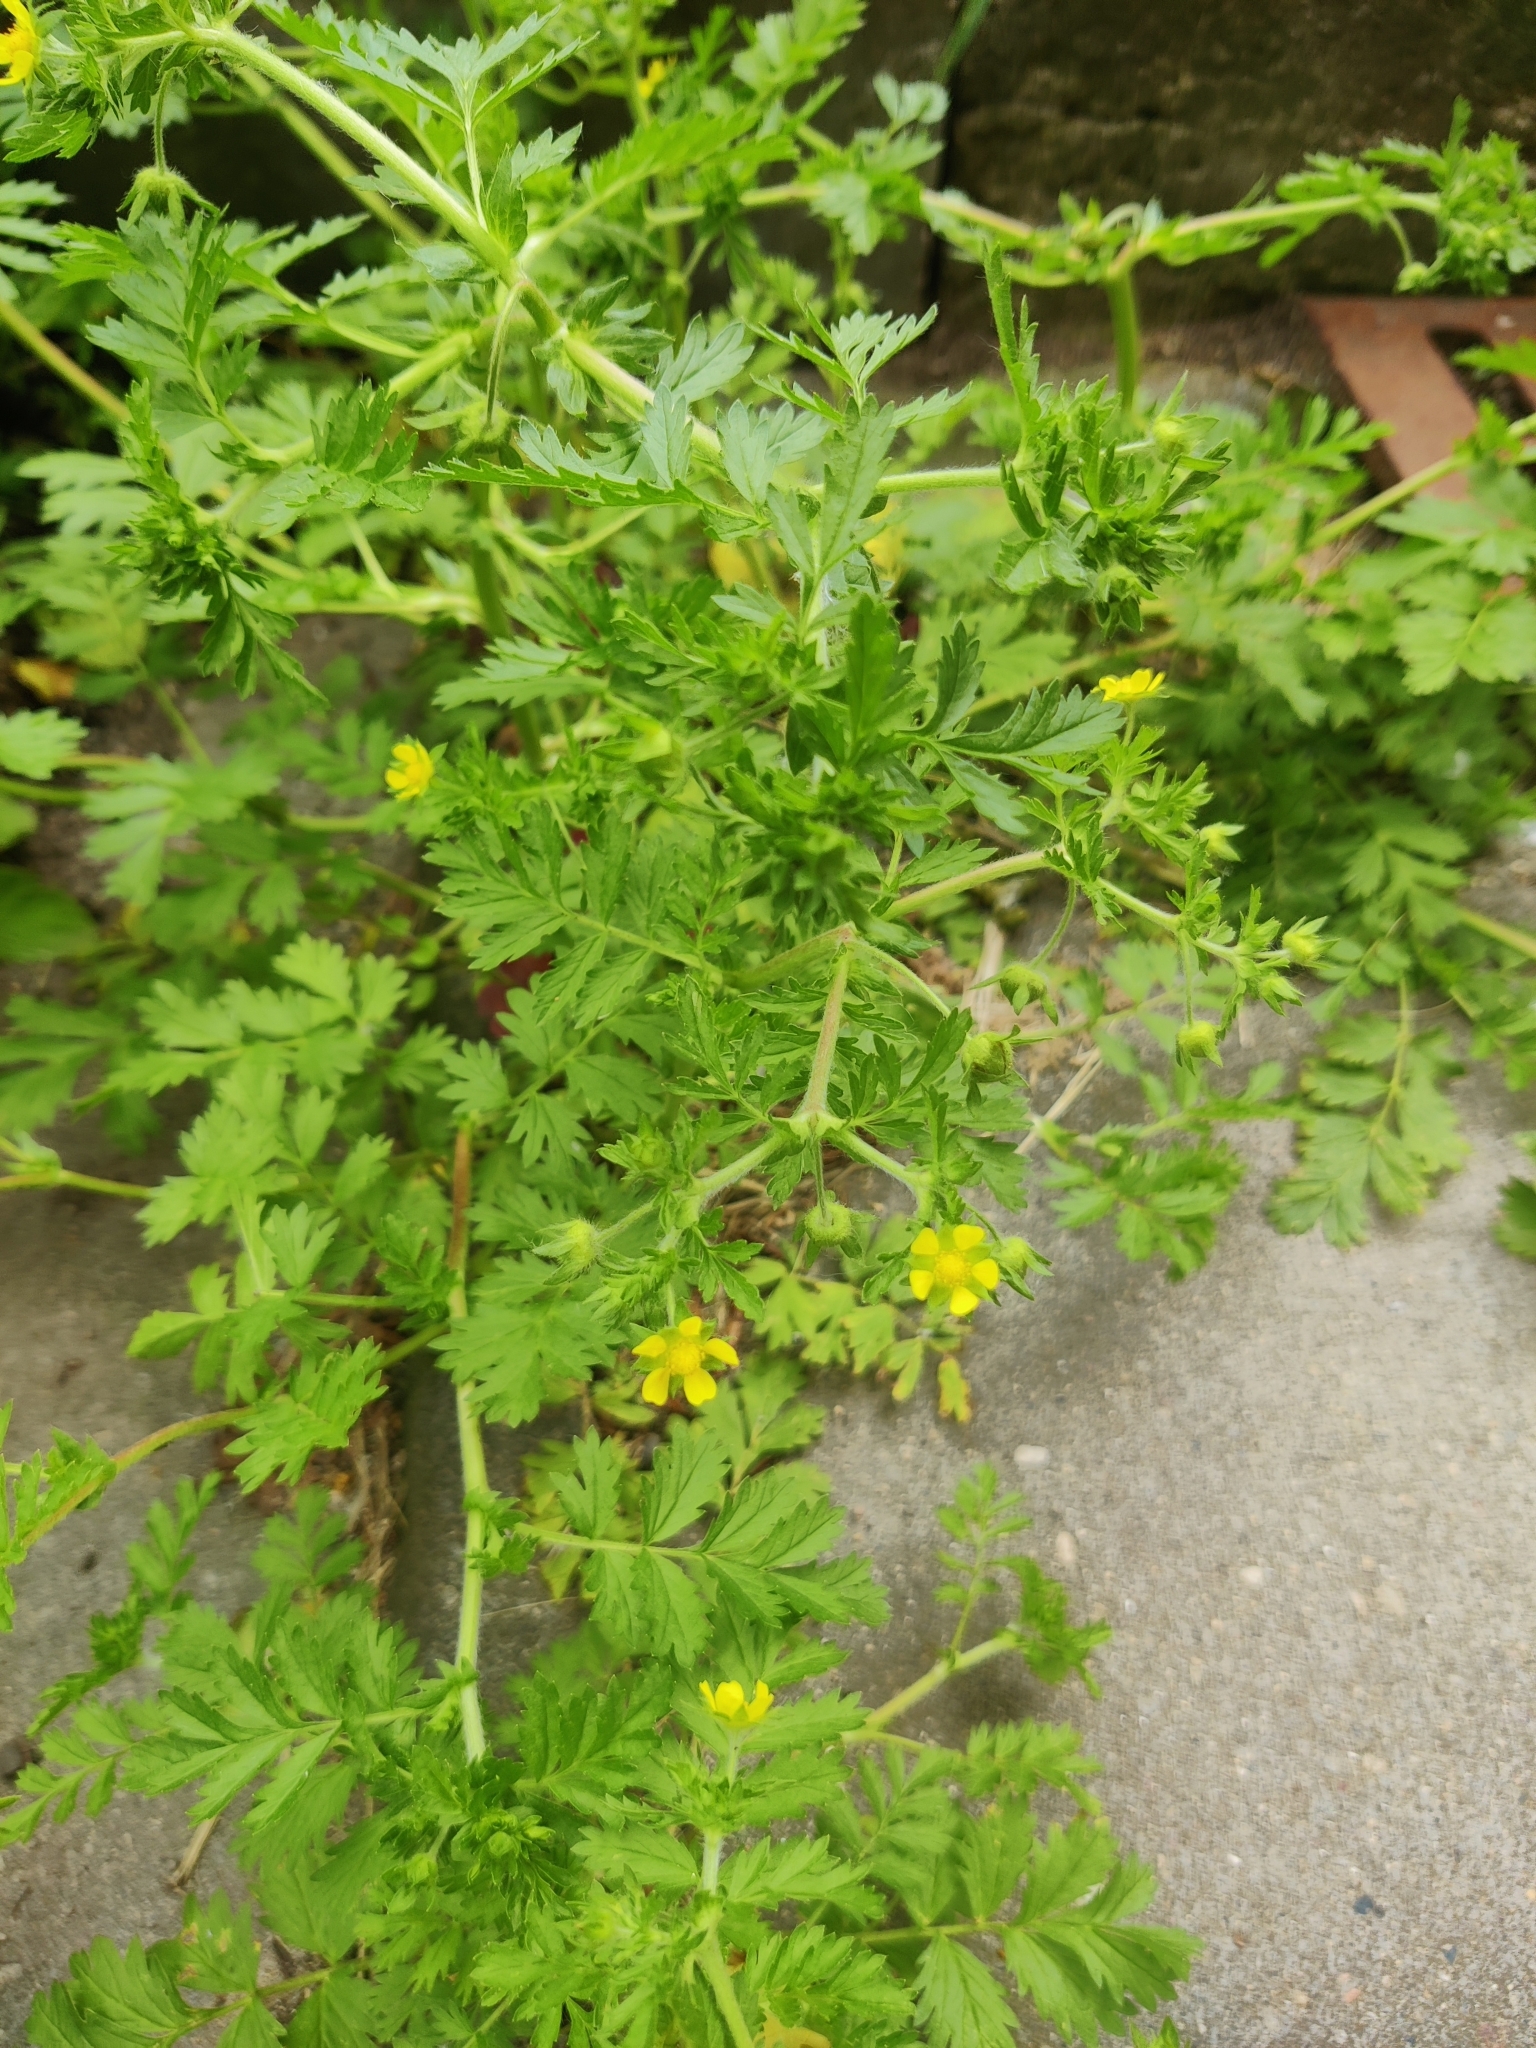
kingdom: Plantae
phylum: Tracheophyta
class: Magnoliopsida
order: Rosales
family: Rosaceae
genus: Potentilla
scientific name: Potentilla supina
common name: Prostrate cinquefoil
